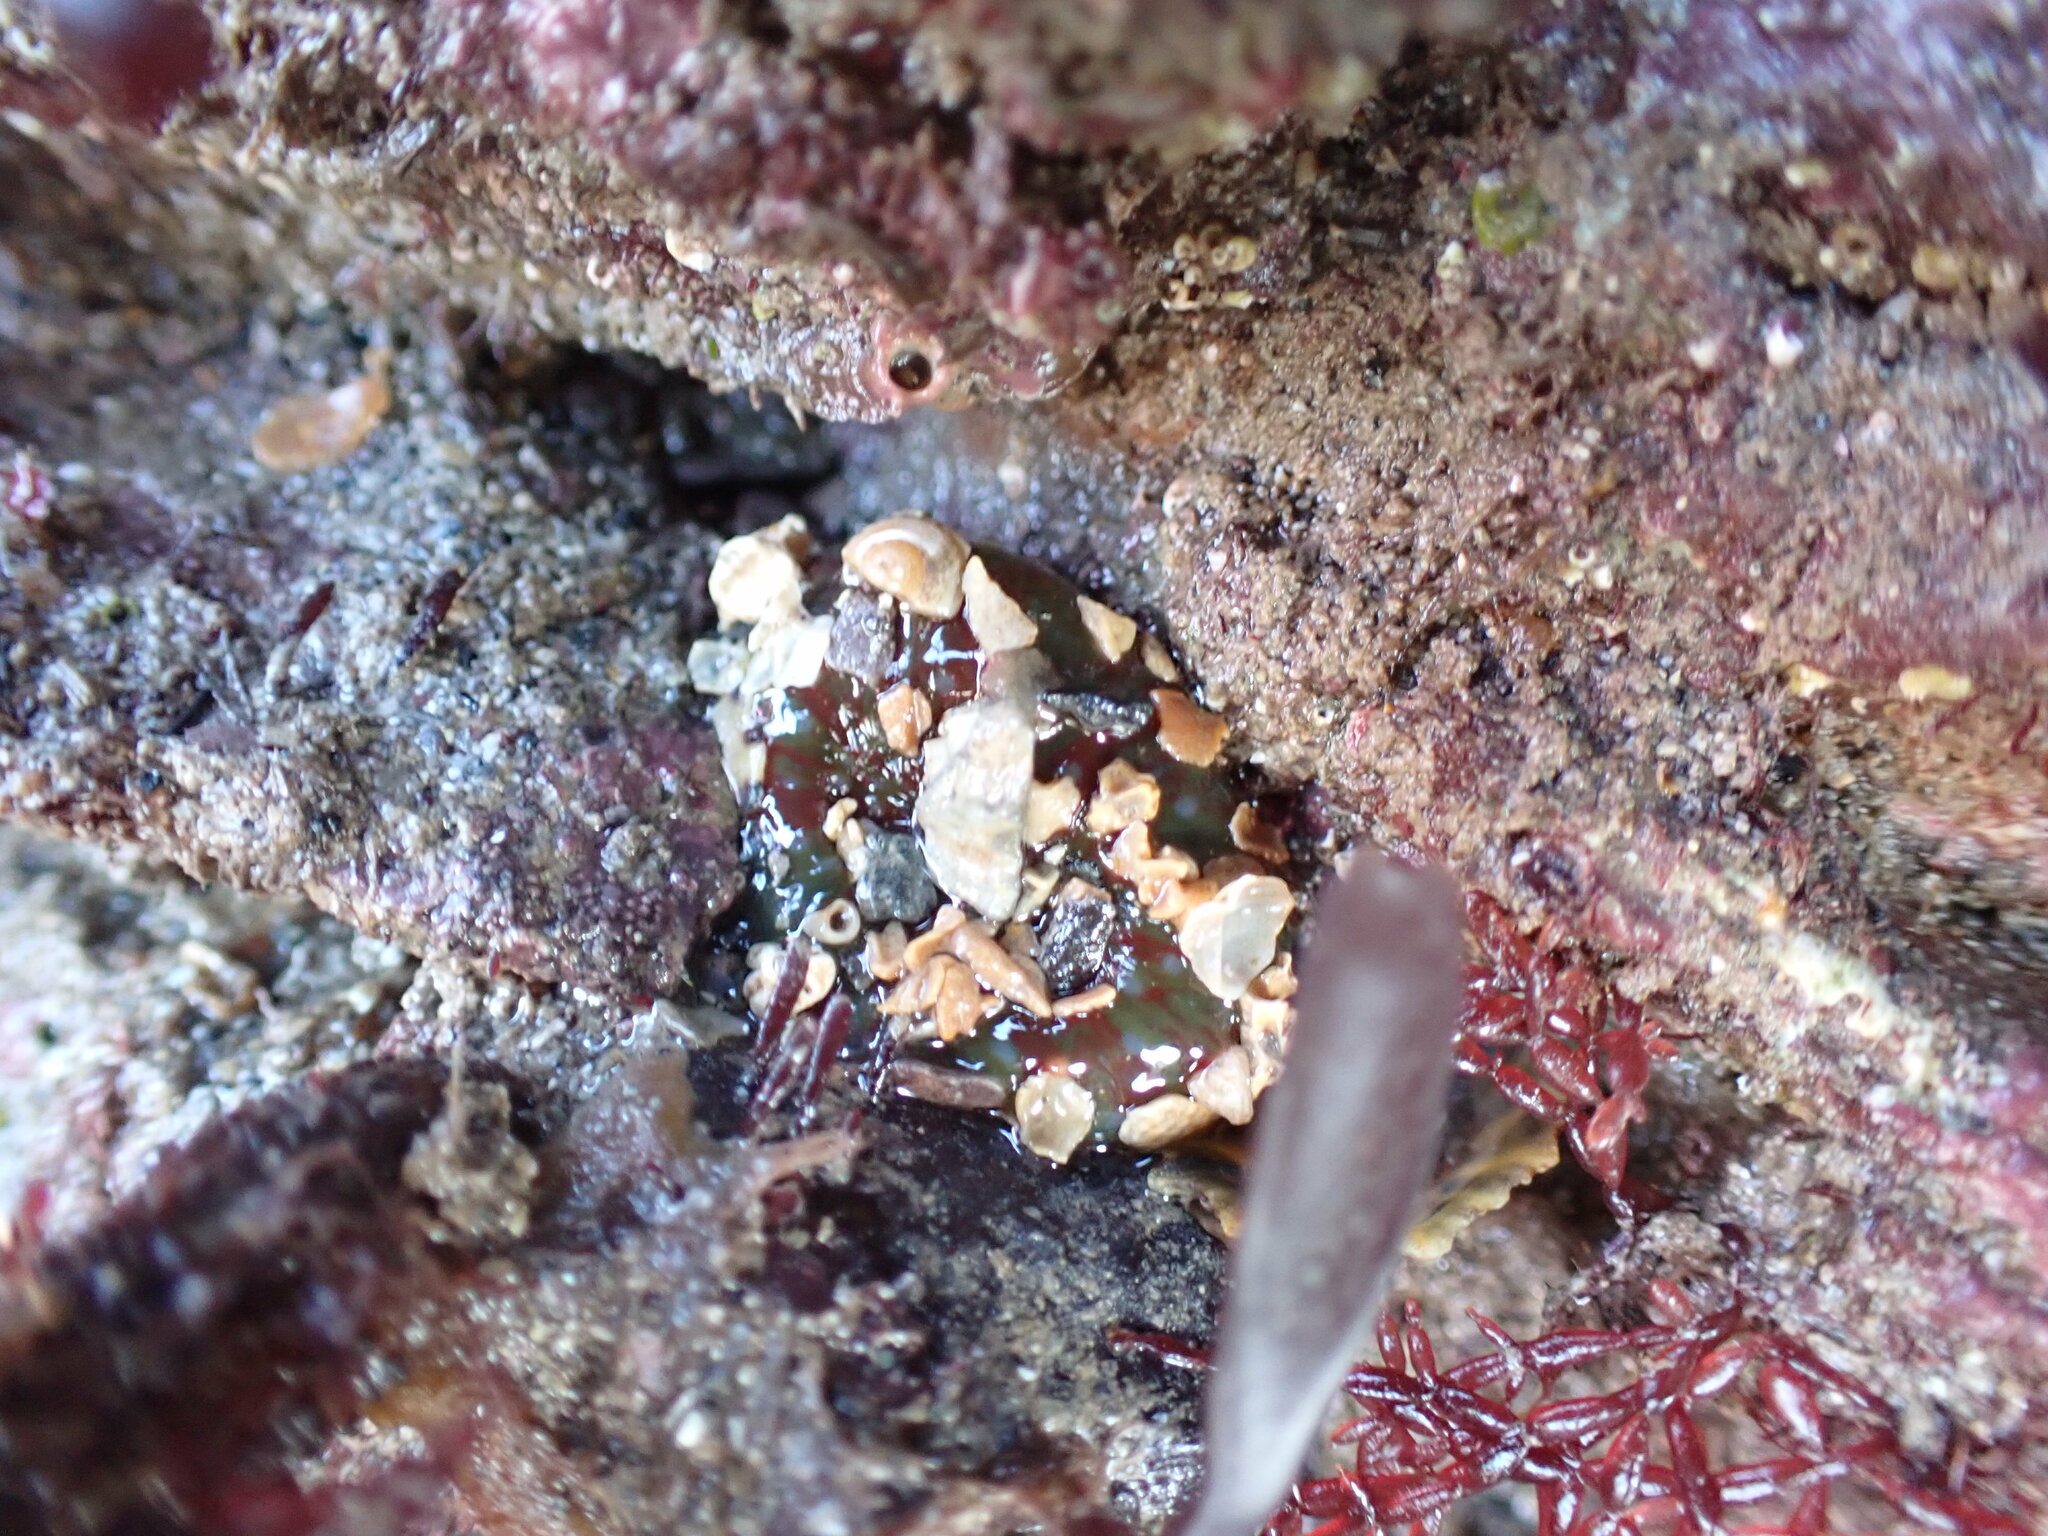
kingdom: Animalia
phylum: Cnidaria
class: Anthozoa
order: Actiniaria
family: Actiniidae
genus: Urticina
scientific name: Urticina felina
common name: Dahlia anemone
